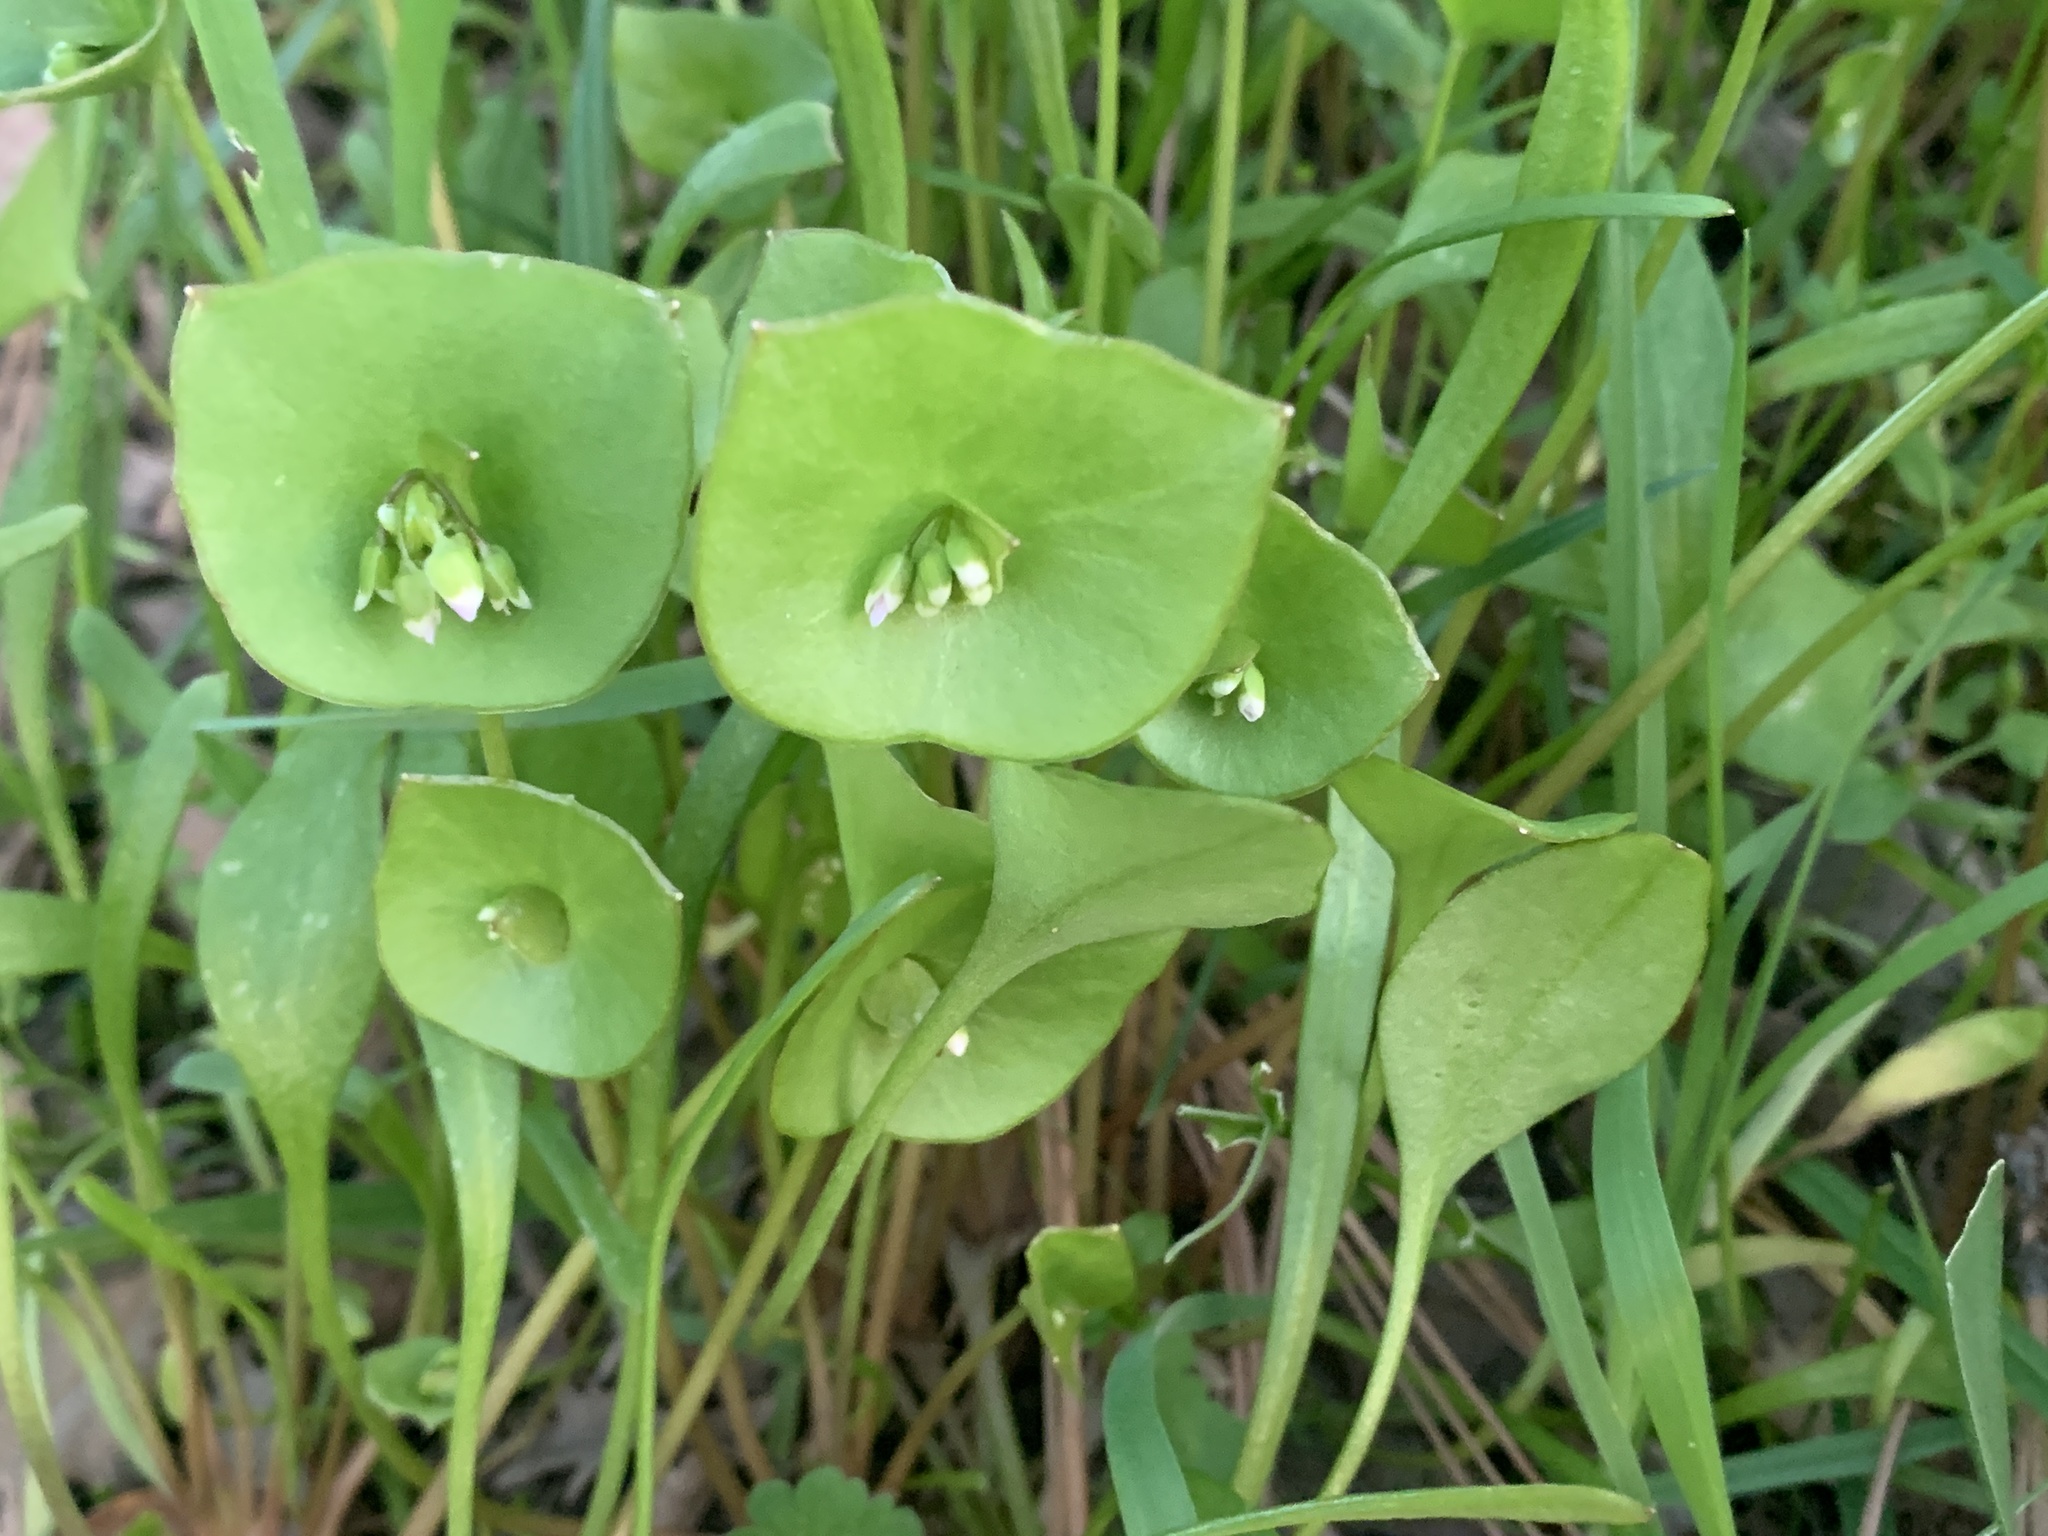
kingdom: Plantae
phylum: Tracheophyta
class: Magnoliopsida
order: Caryophyllales
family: Montiaceae
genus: Claytonia
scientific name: Claytonia perfoliata
